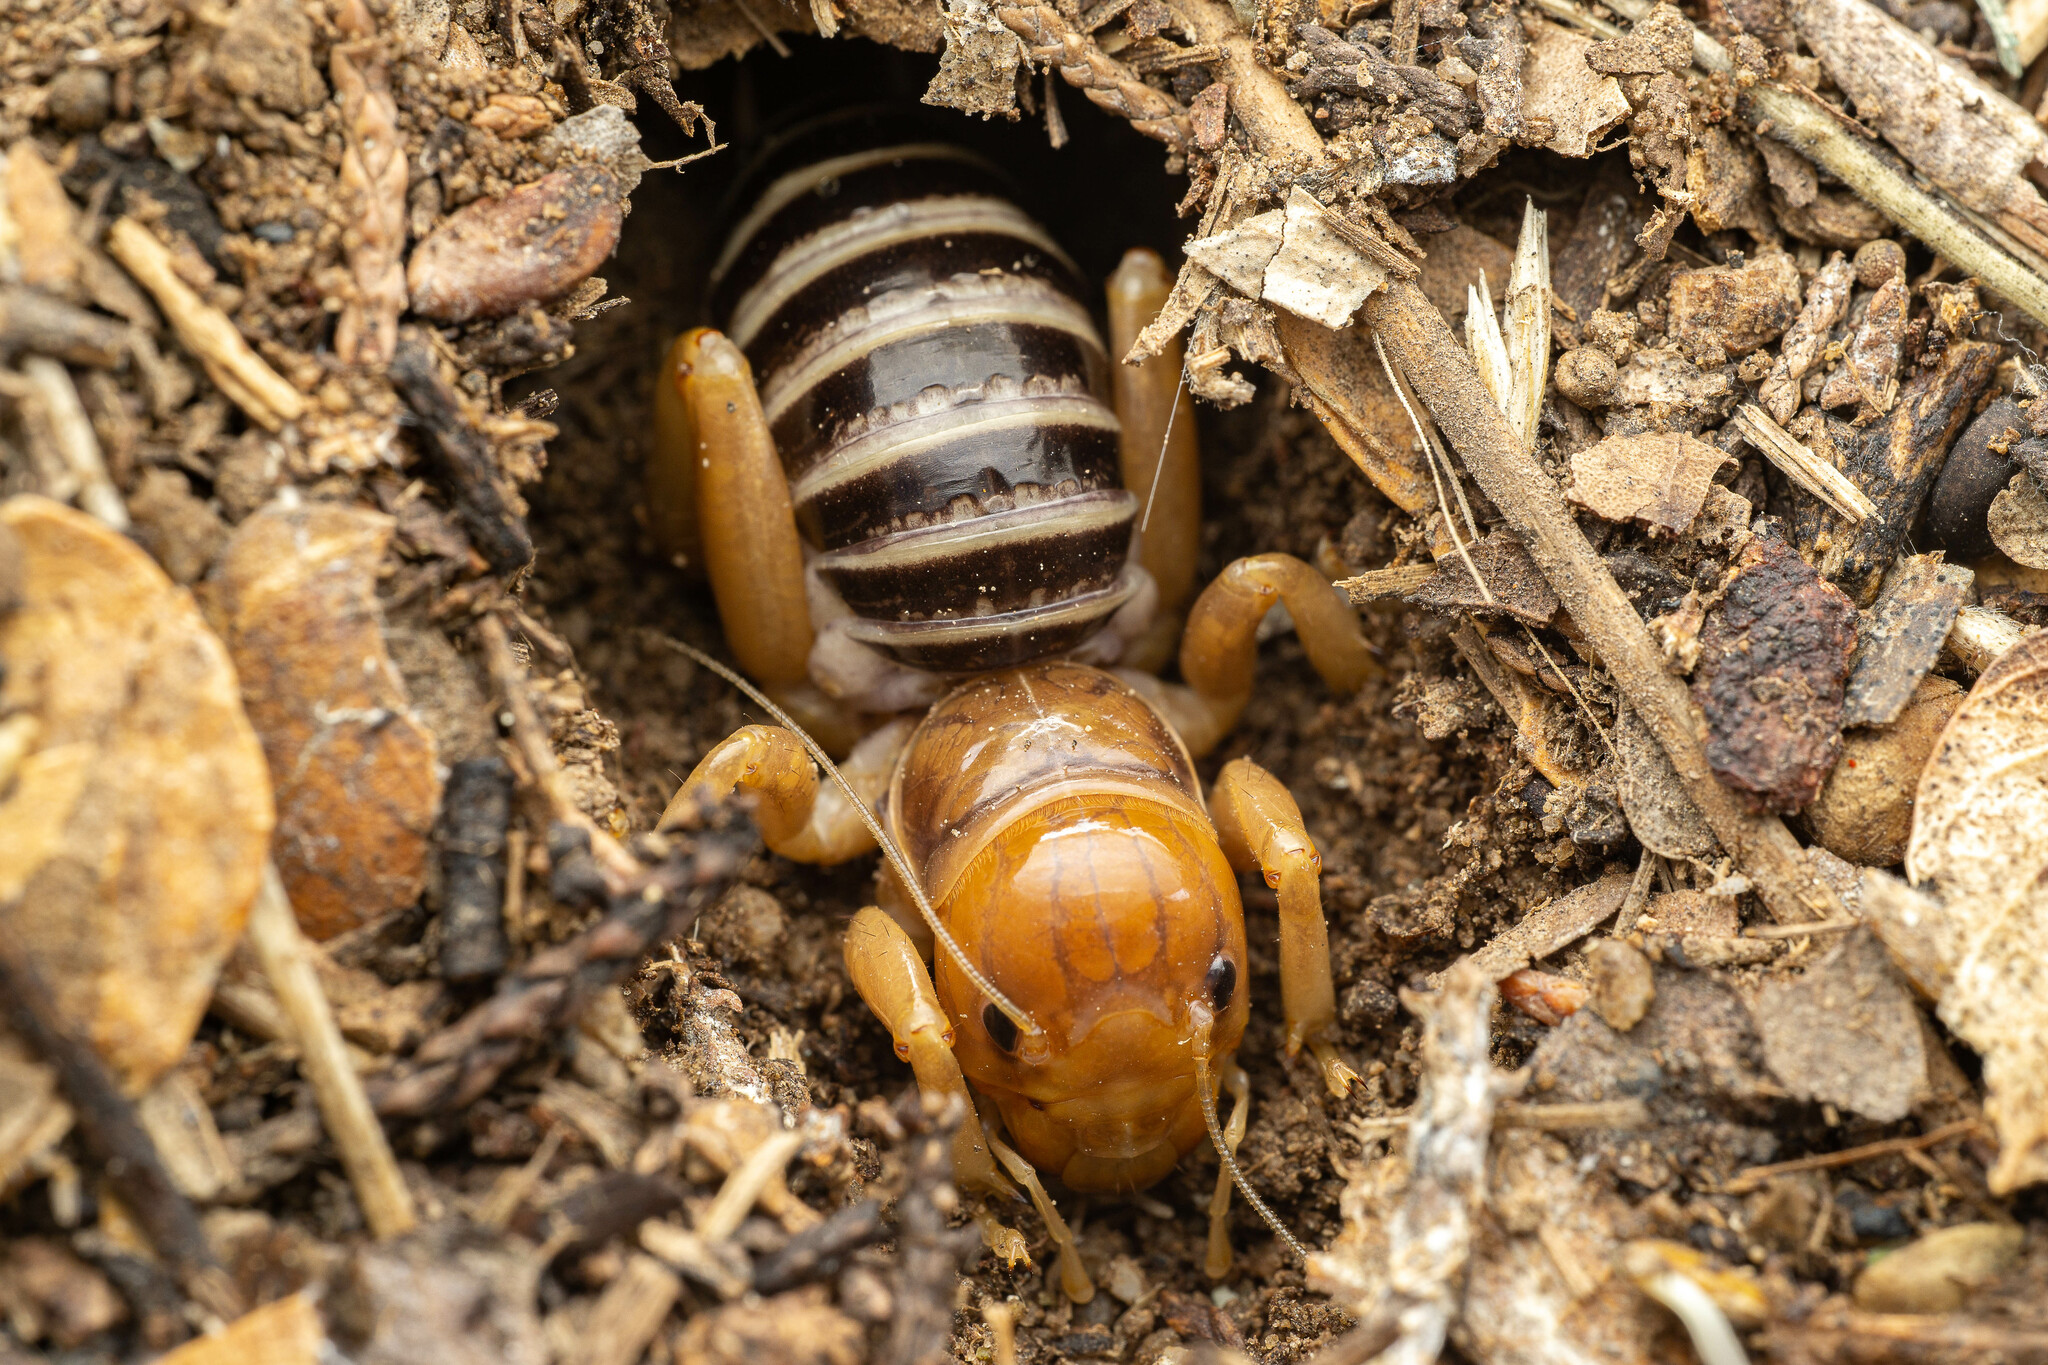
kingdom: Animalia
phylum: Arthropoda
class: Insecta
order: Orthoptera
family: Stenopelmatidae
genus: Ammopelmatus
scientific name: Ammopelmatus
